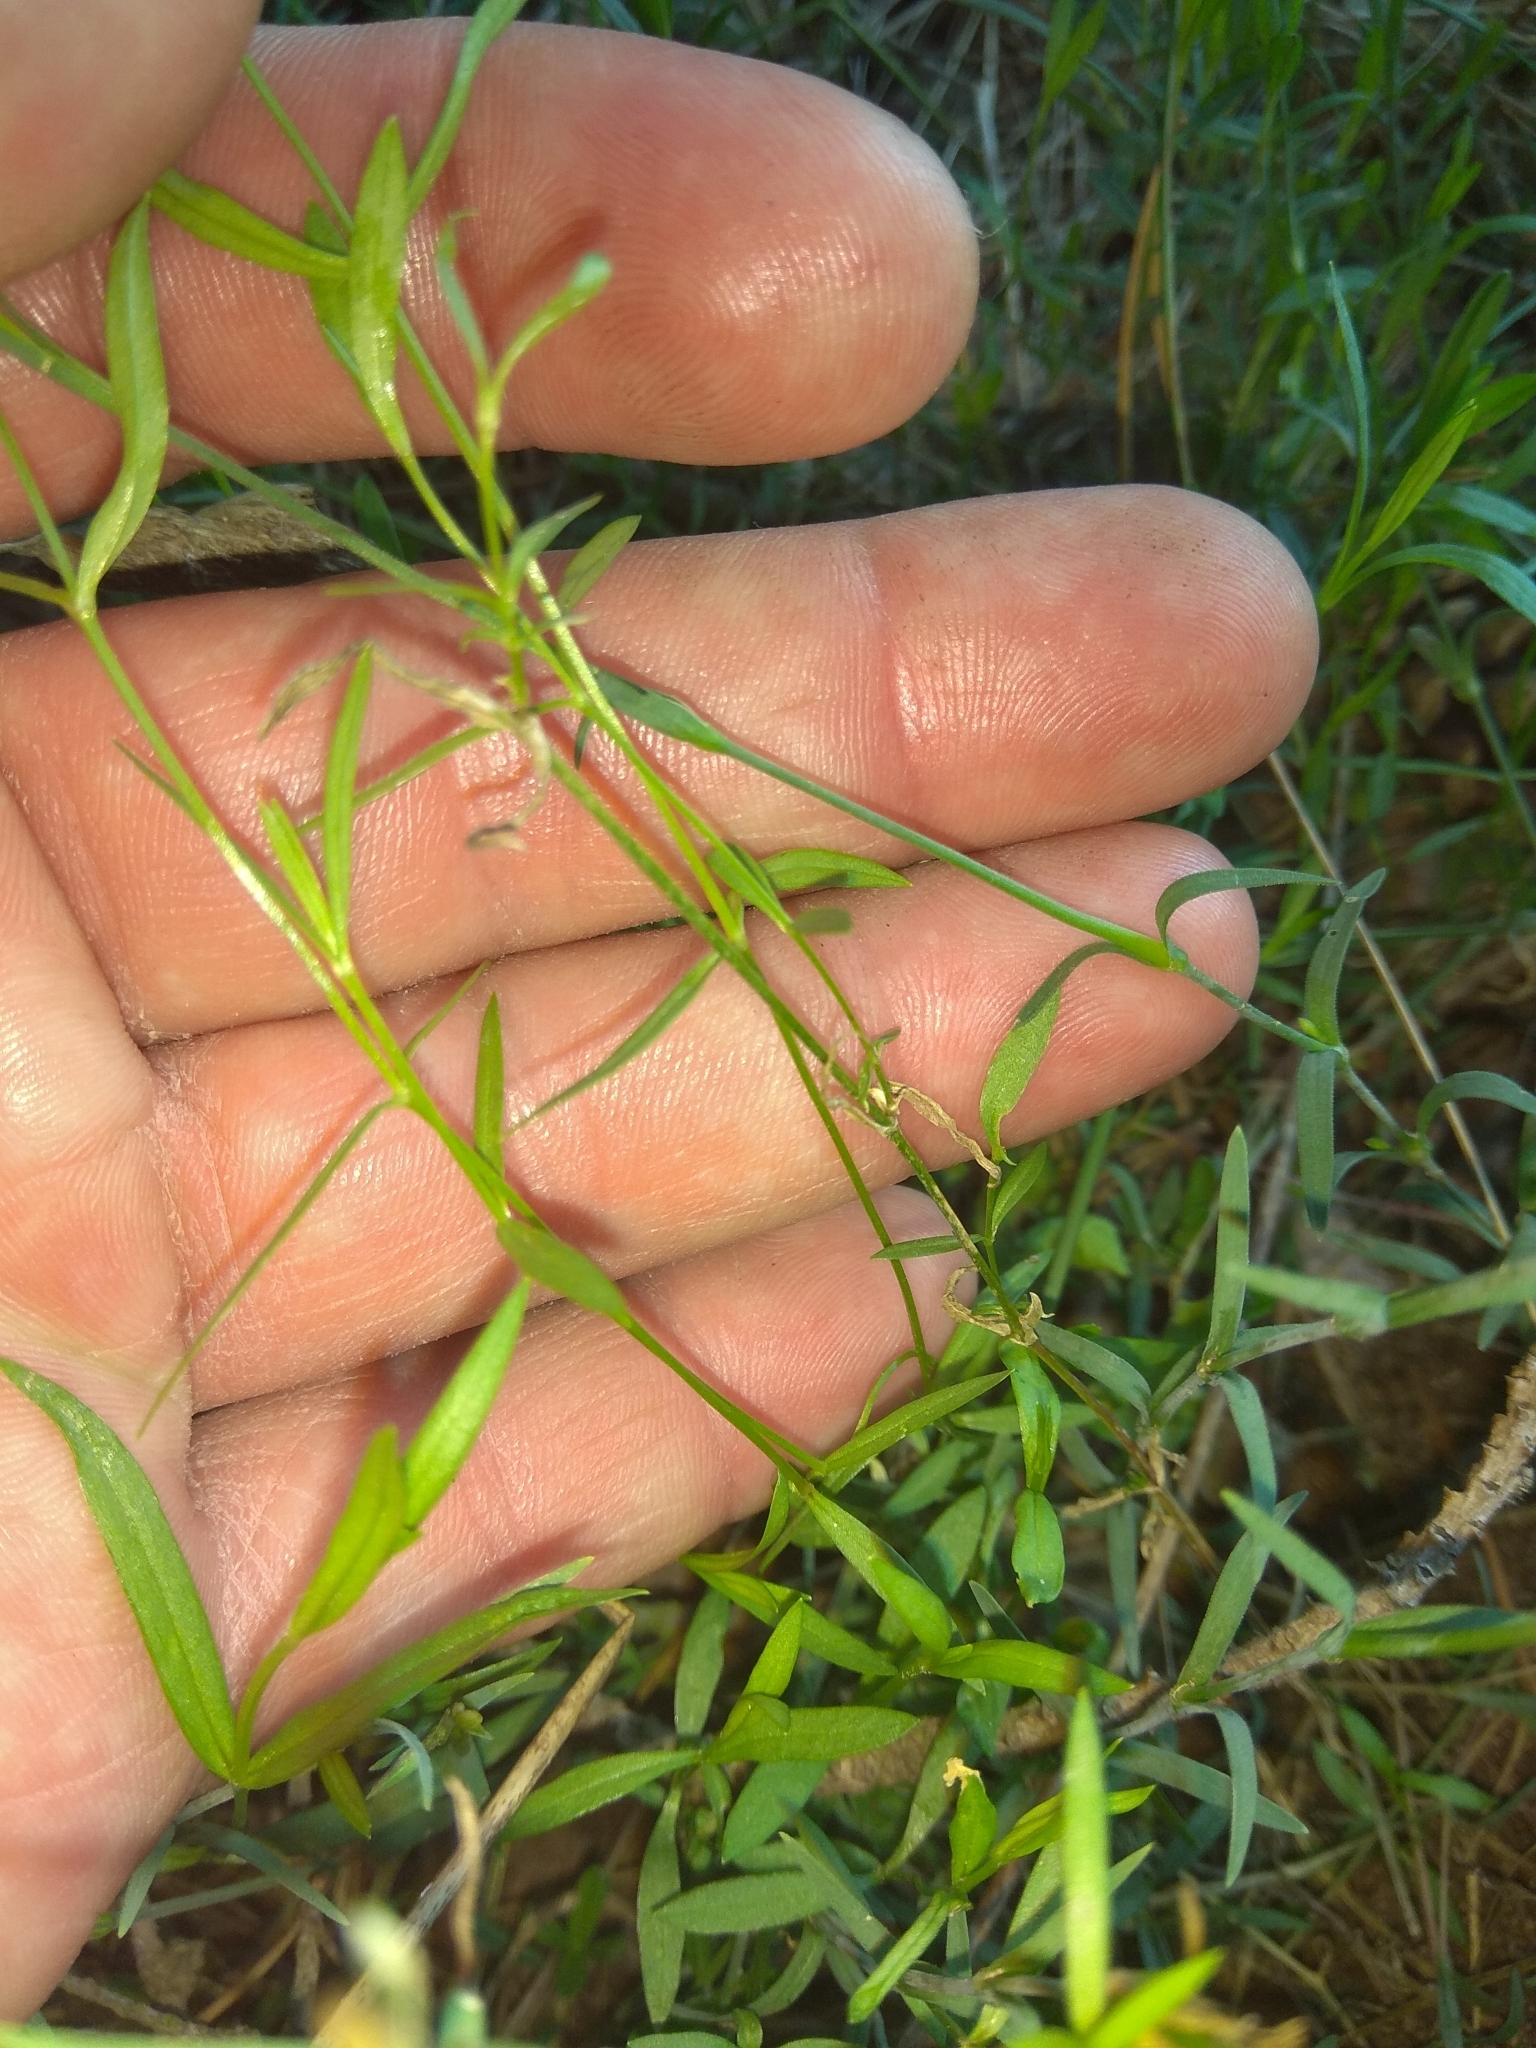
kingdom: Plantae
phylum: Tracheophyta
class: Magnoliopsida
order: Caryophyllales
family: Caryophyllaceae
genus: Dianthus
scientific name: Dianthus deltoides
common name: Maiden pink
